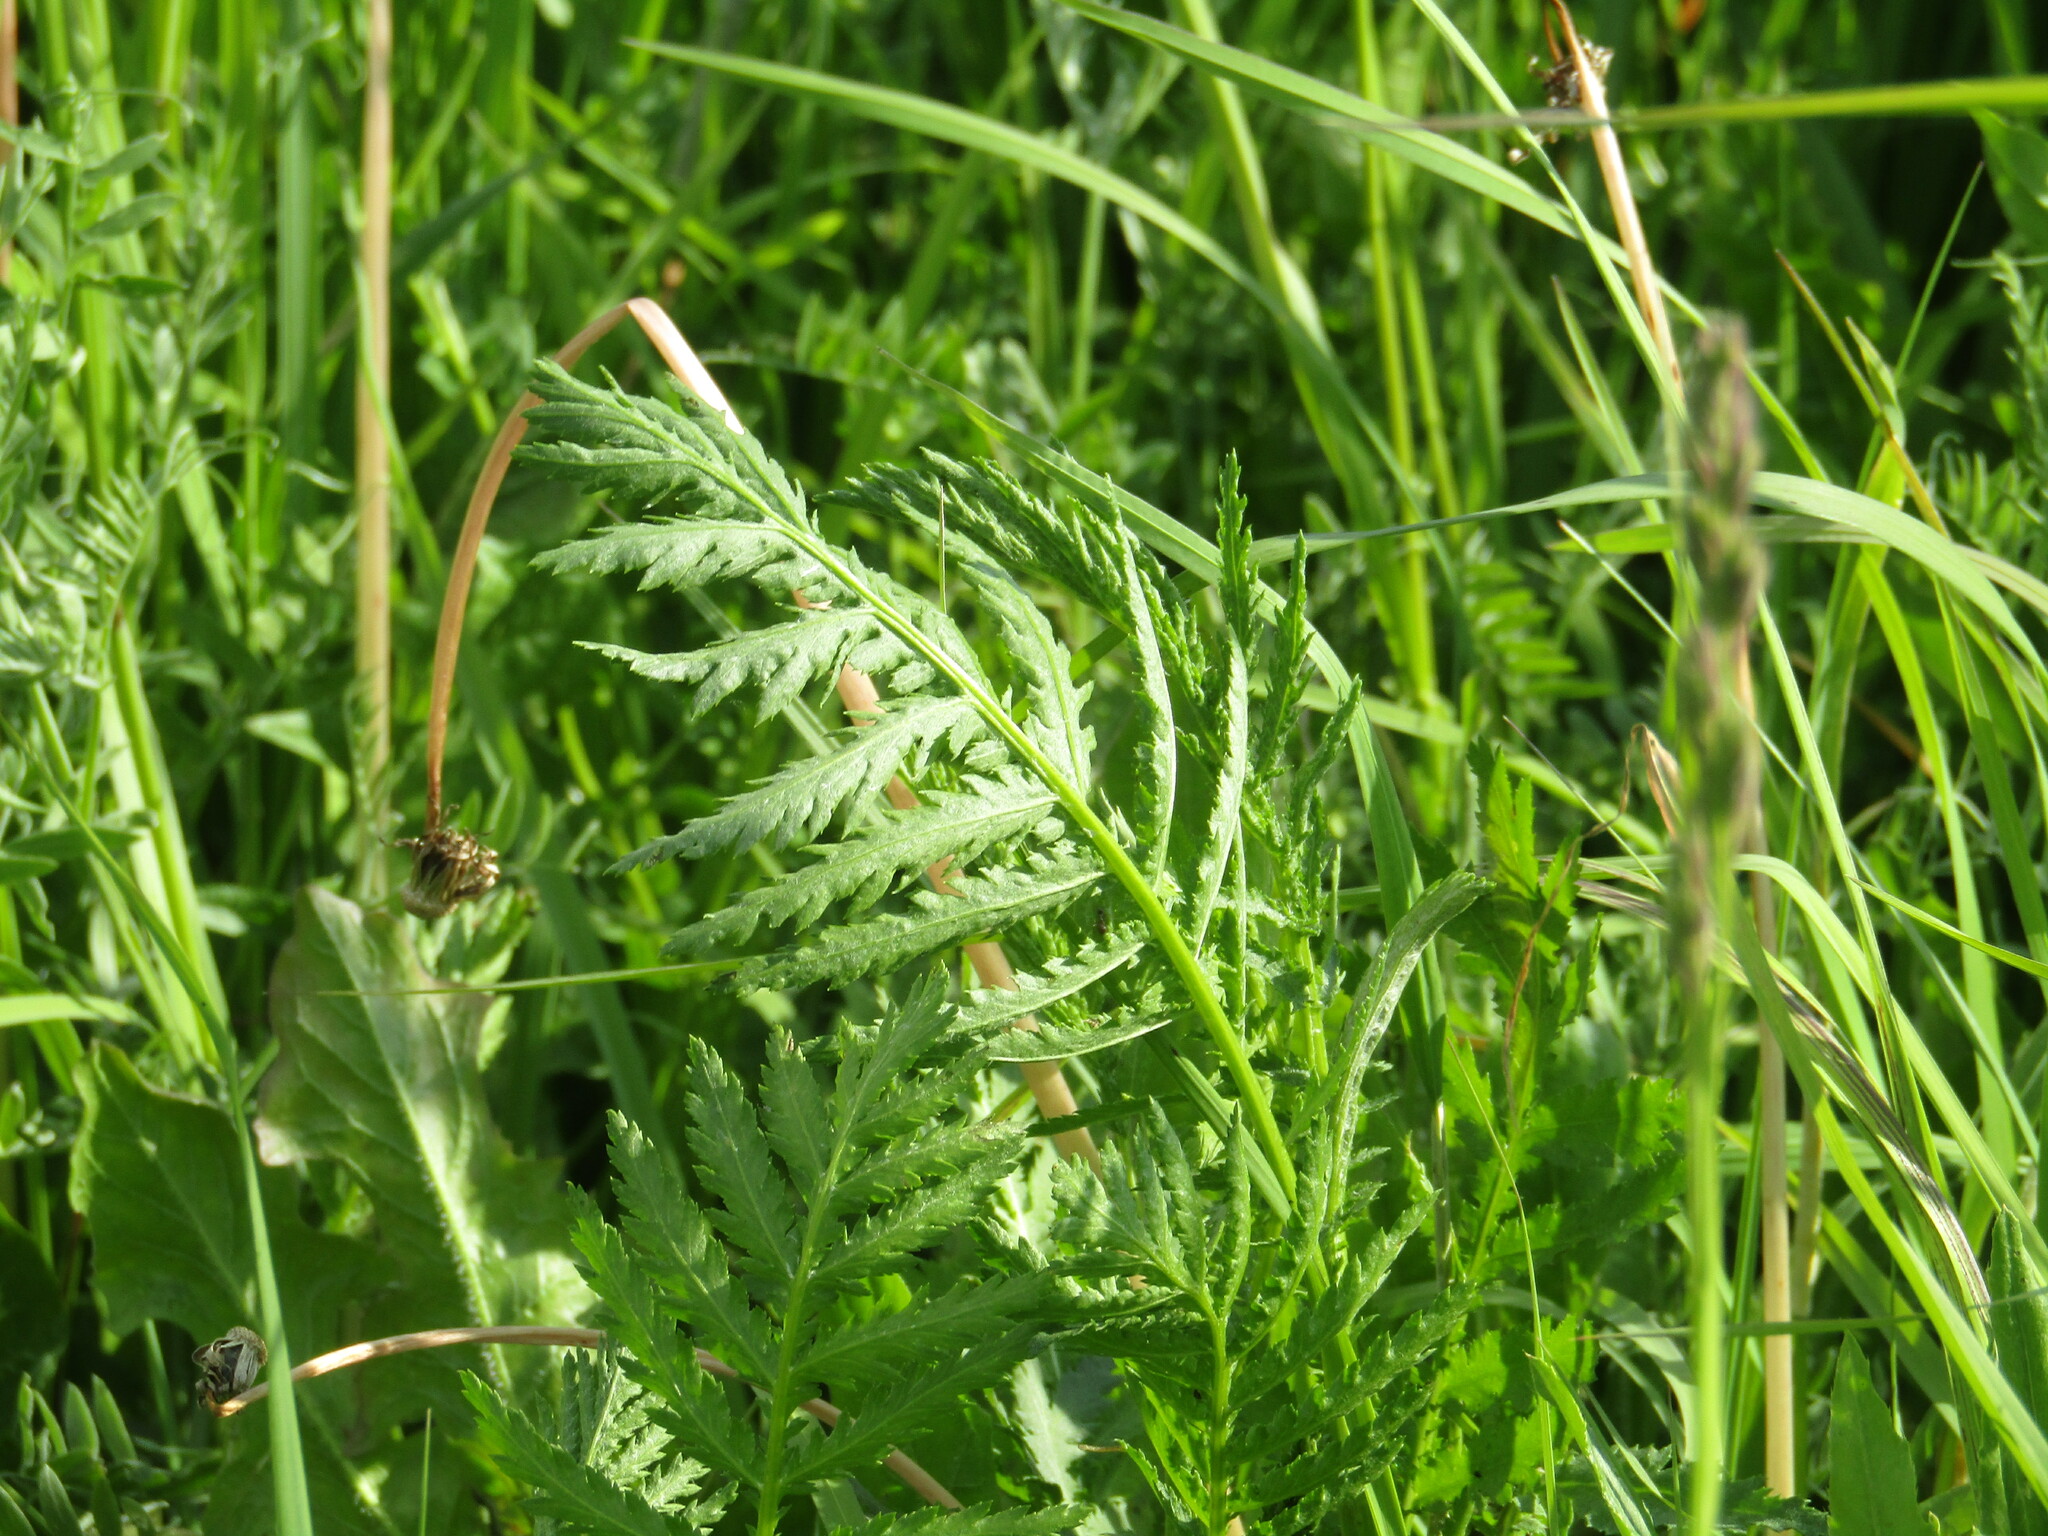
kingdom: Plantae
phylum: Tracheophyta
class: Magnoliopsida
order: Asterales
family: Asteraceae
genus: Tanacetum
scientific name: Tanacetum vulgare
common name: Common tansy
